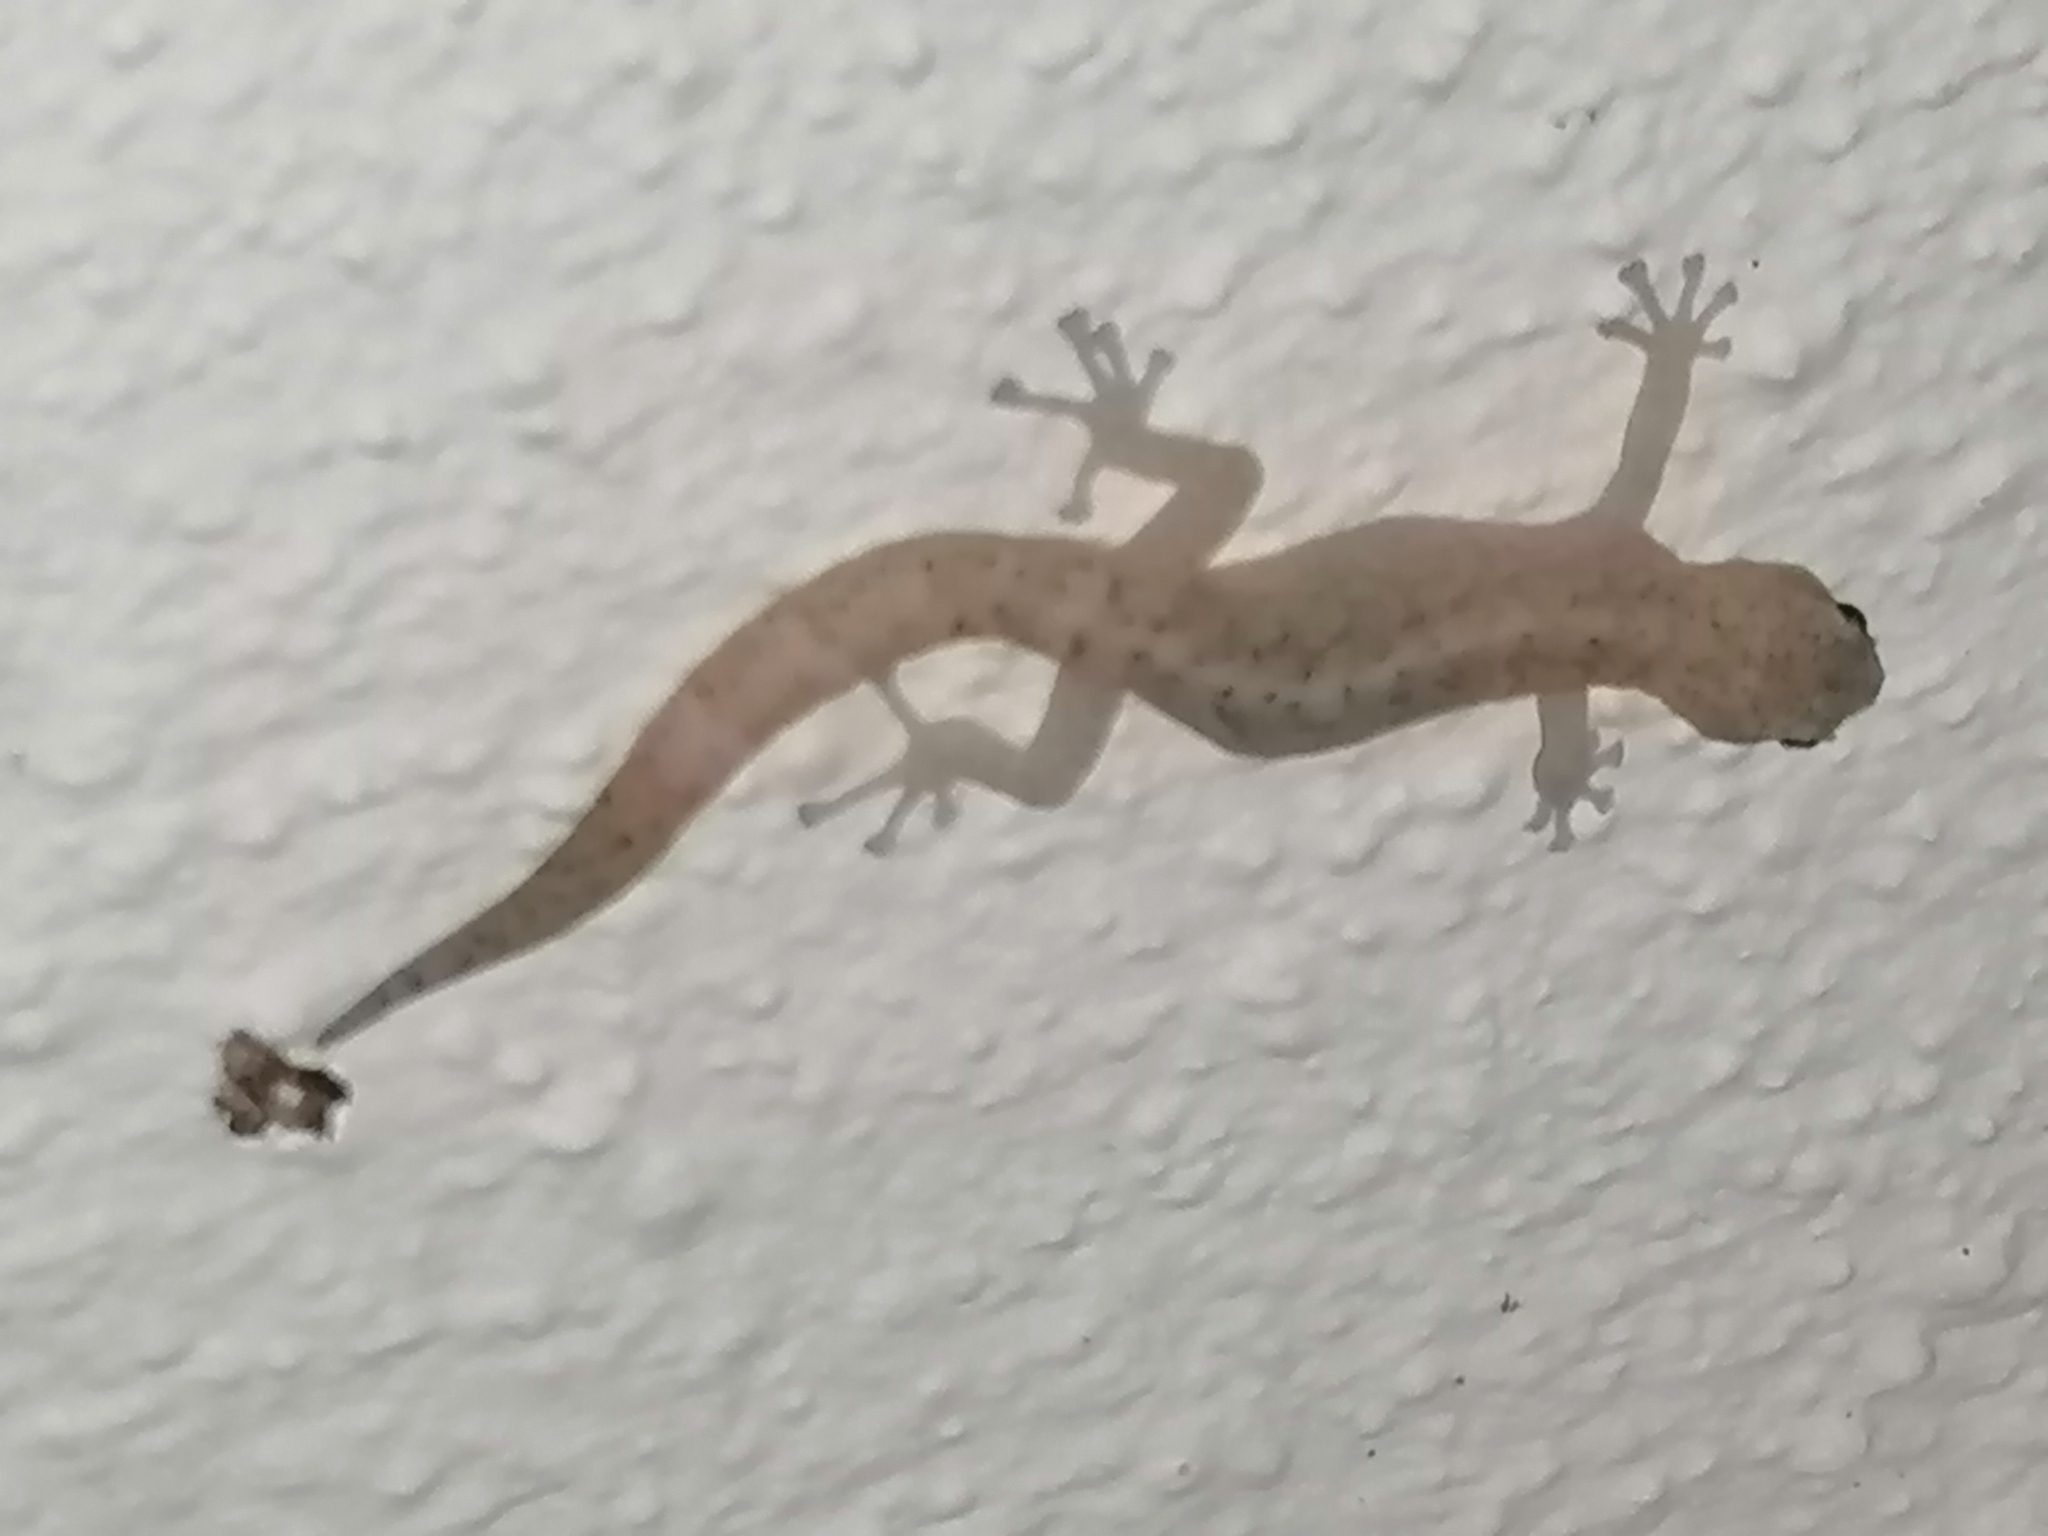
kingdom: Animalia
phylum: Chordata
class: Squamata
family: Gekkonidae
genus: Afrogecko
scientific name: Afrogecko porphyreus
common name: Marbled leaf-toed gecko
